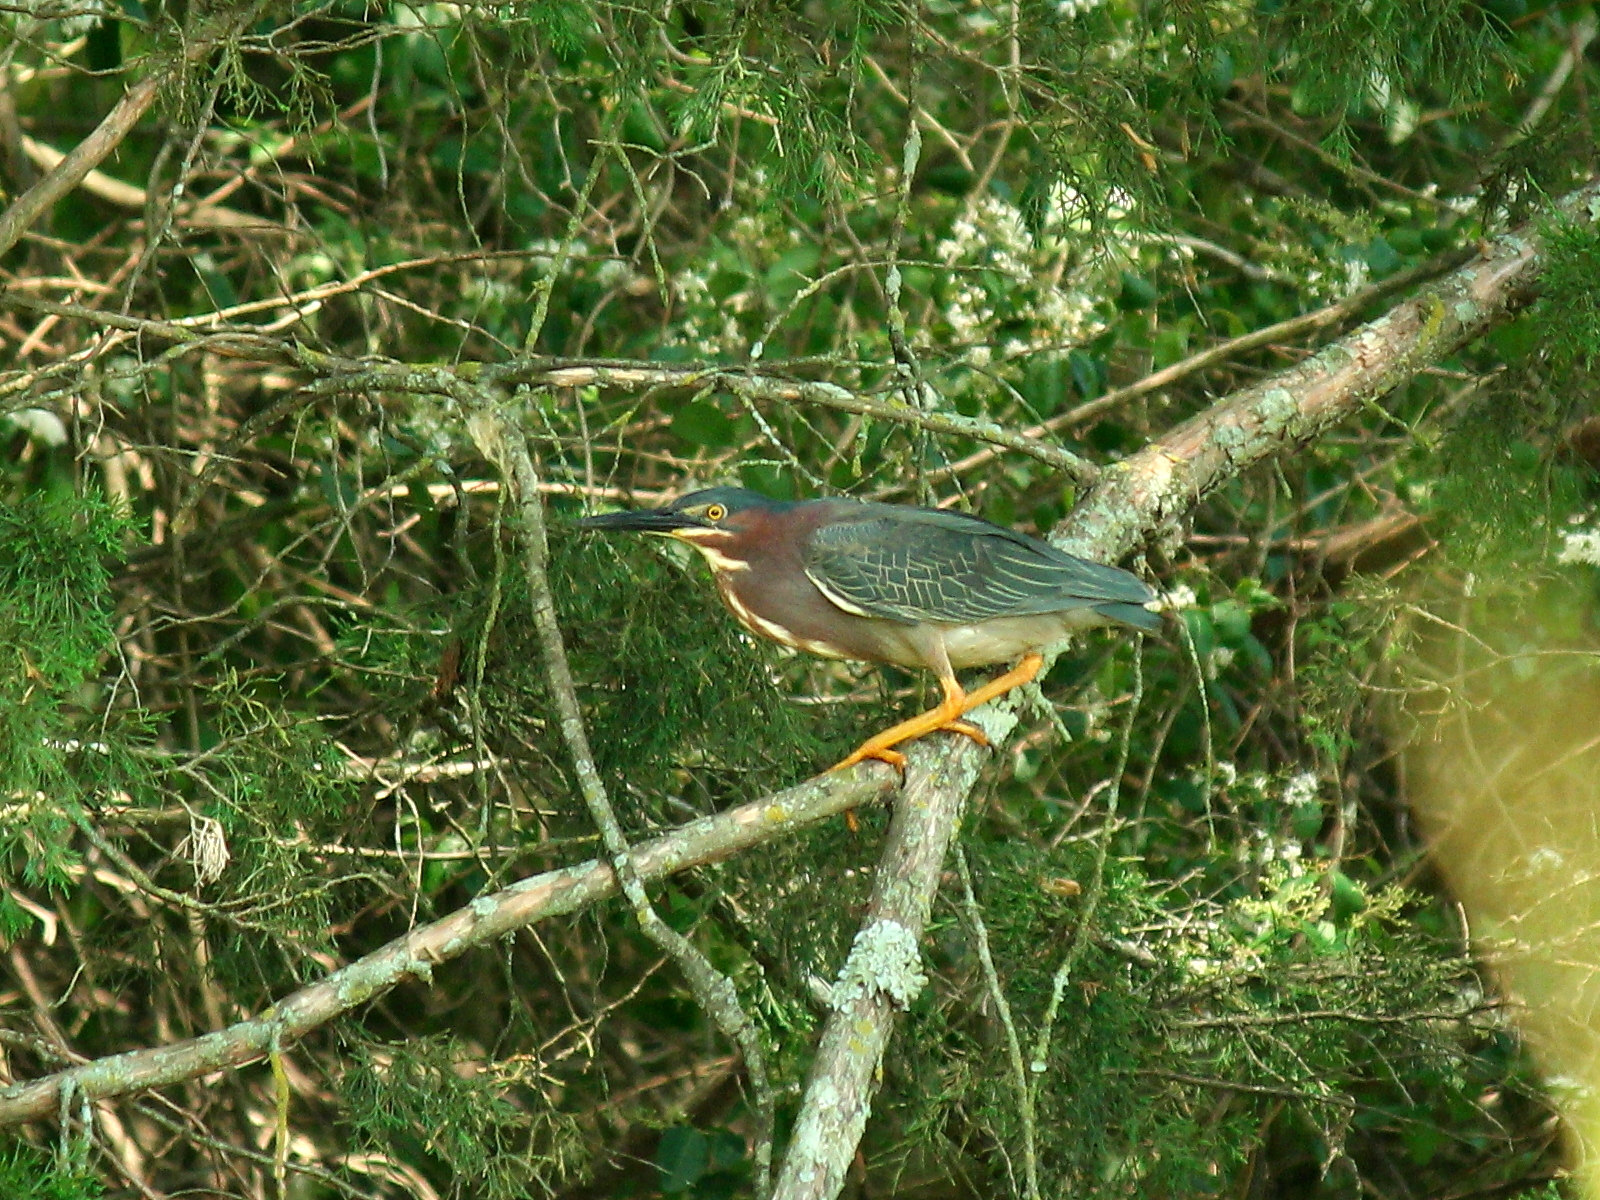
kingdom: Animalia
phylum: Chordata
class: Aves
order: Pelecaniformes
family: Ardeidae
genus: Butorides
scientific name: Butorides virescens
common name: Green heron
